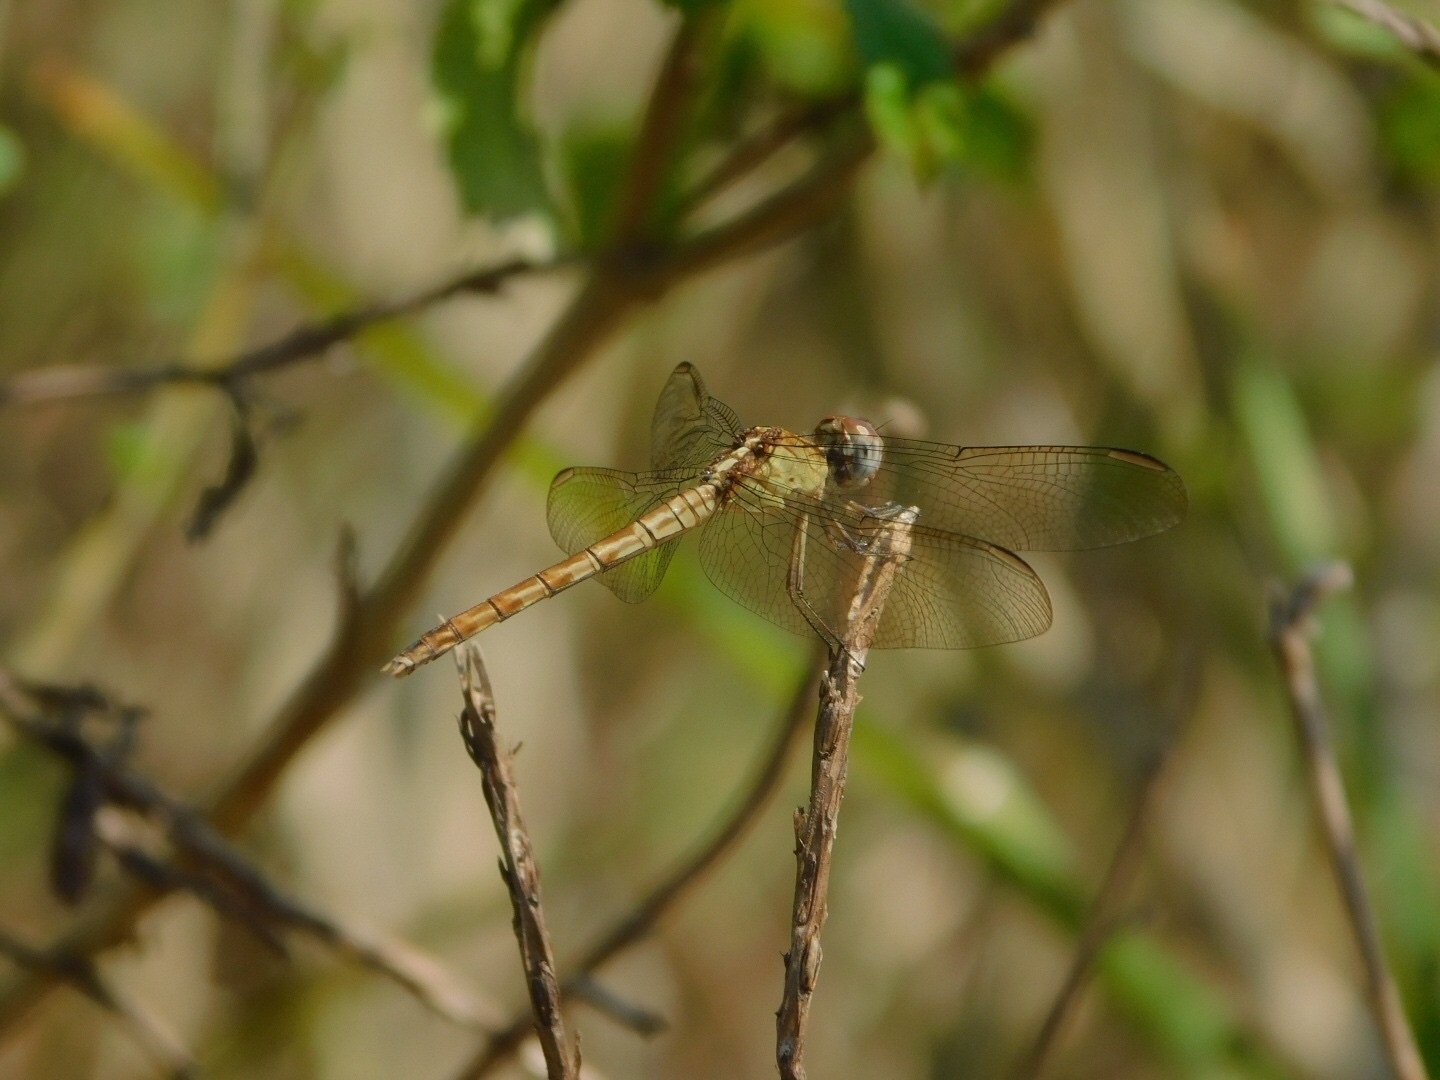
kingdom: Animalia
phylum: Arthropoda
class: Insecta
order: Odonata
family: Libellulidae
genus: Erythrodiplax
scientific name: Erythrodiplax umbrata
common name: Band-winged dragonlet
